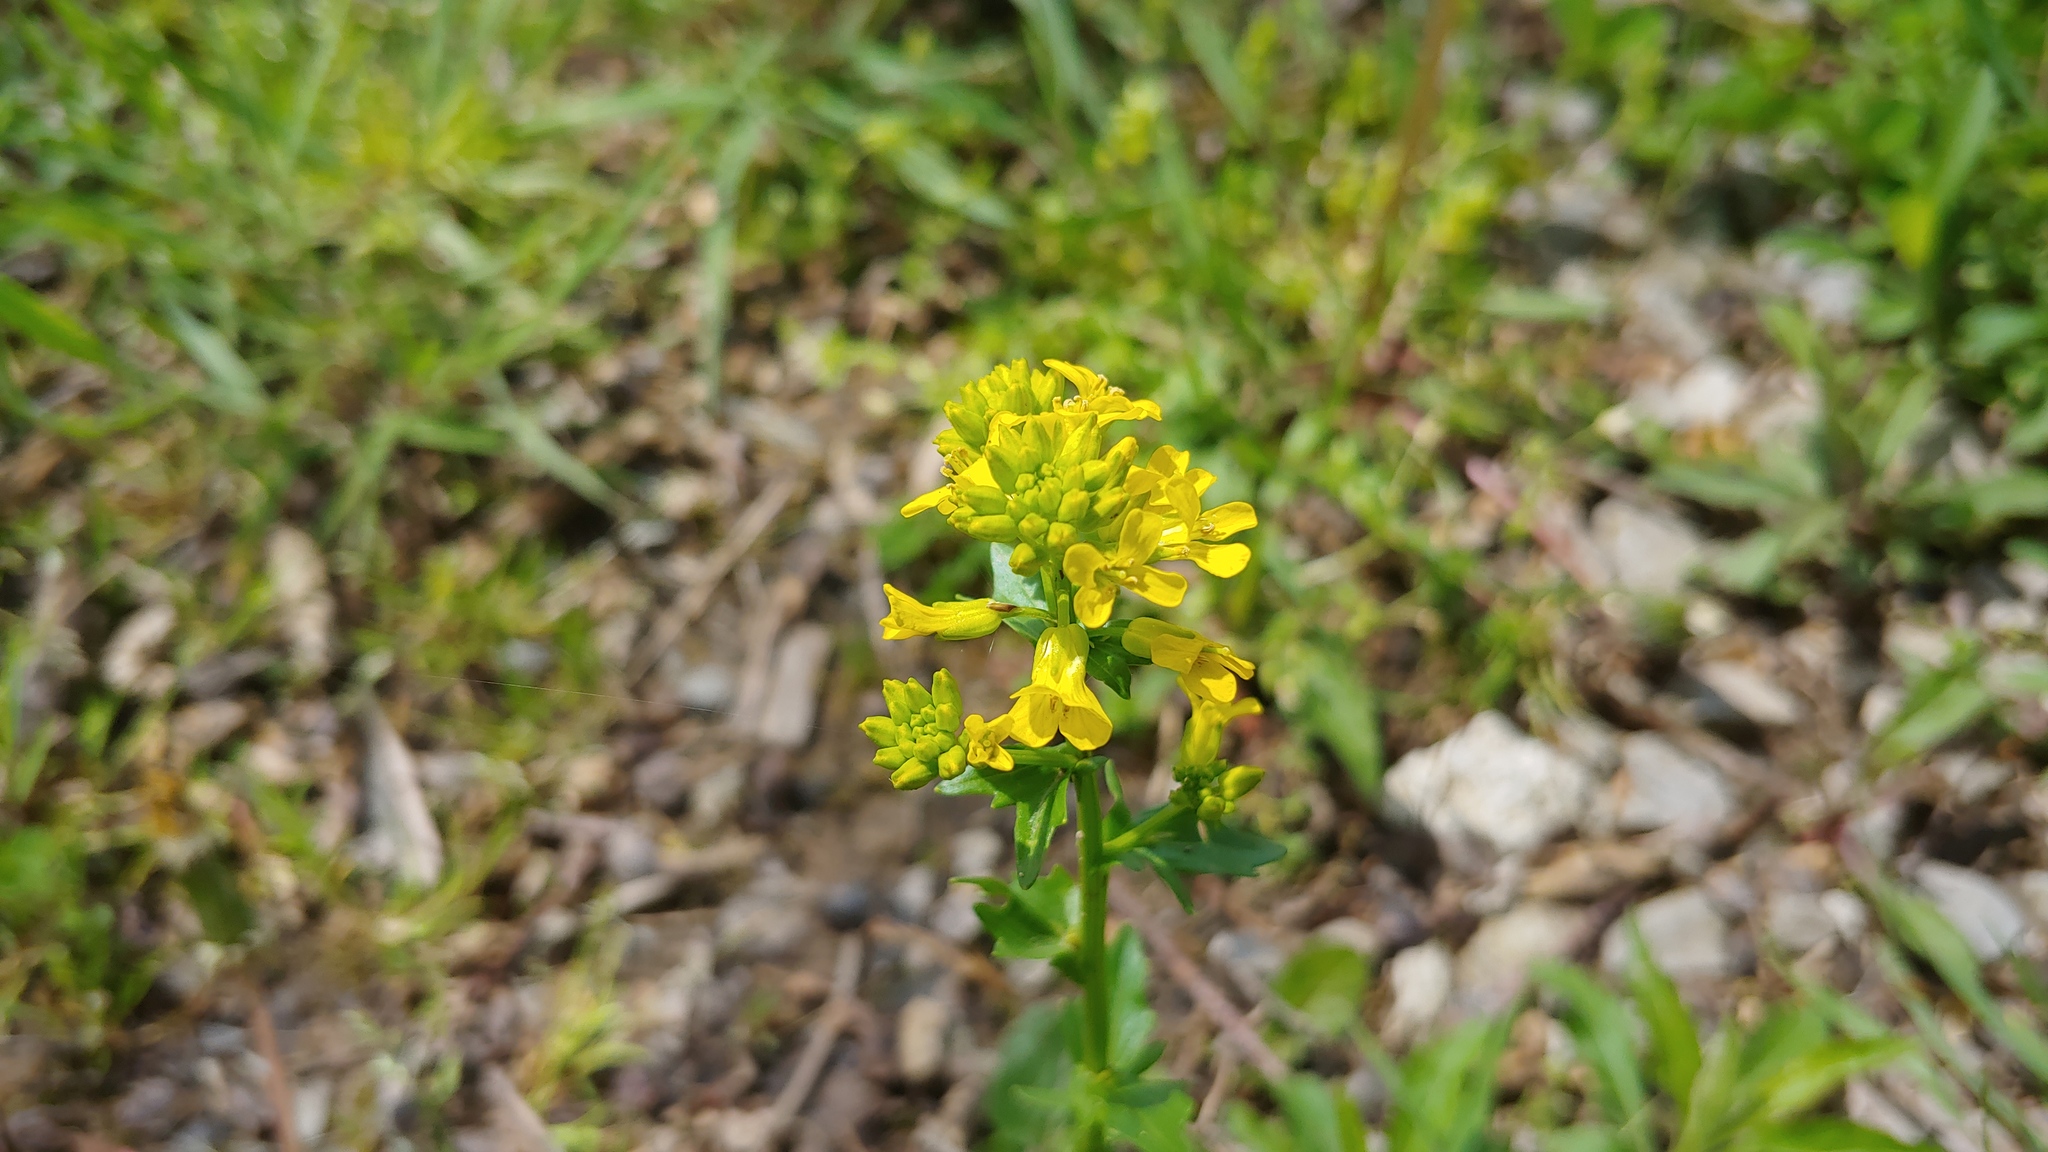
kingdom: Plantae
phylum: Tracheophyta
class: Magnoliopsida
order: Brassicales
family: Brassicaceae
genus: Barbarea
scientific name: Barbarea vulgaris
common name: Cressy-greens
